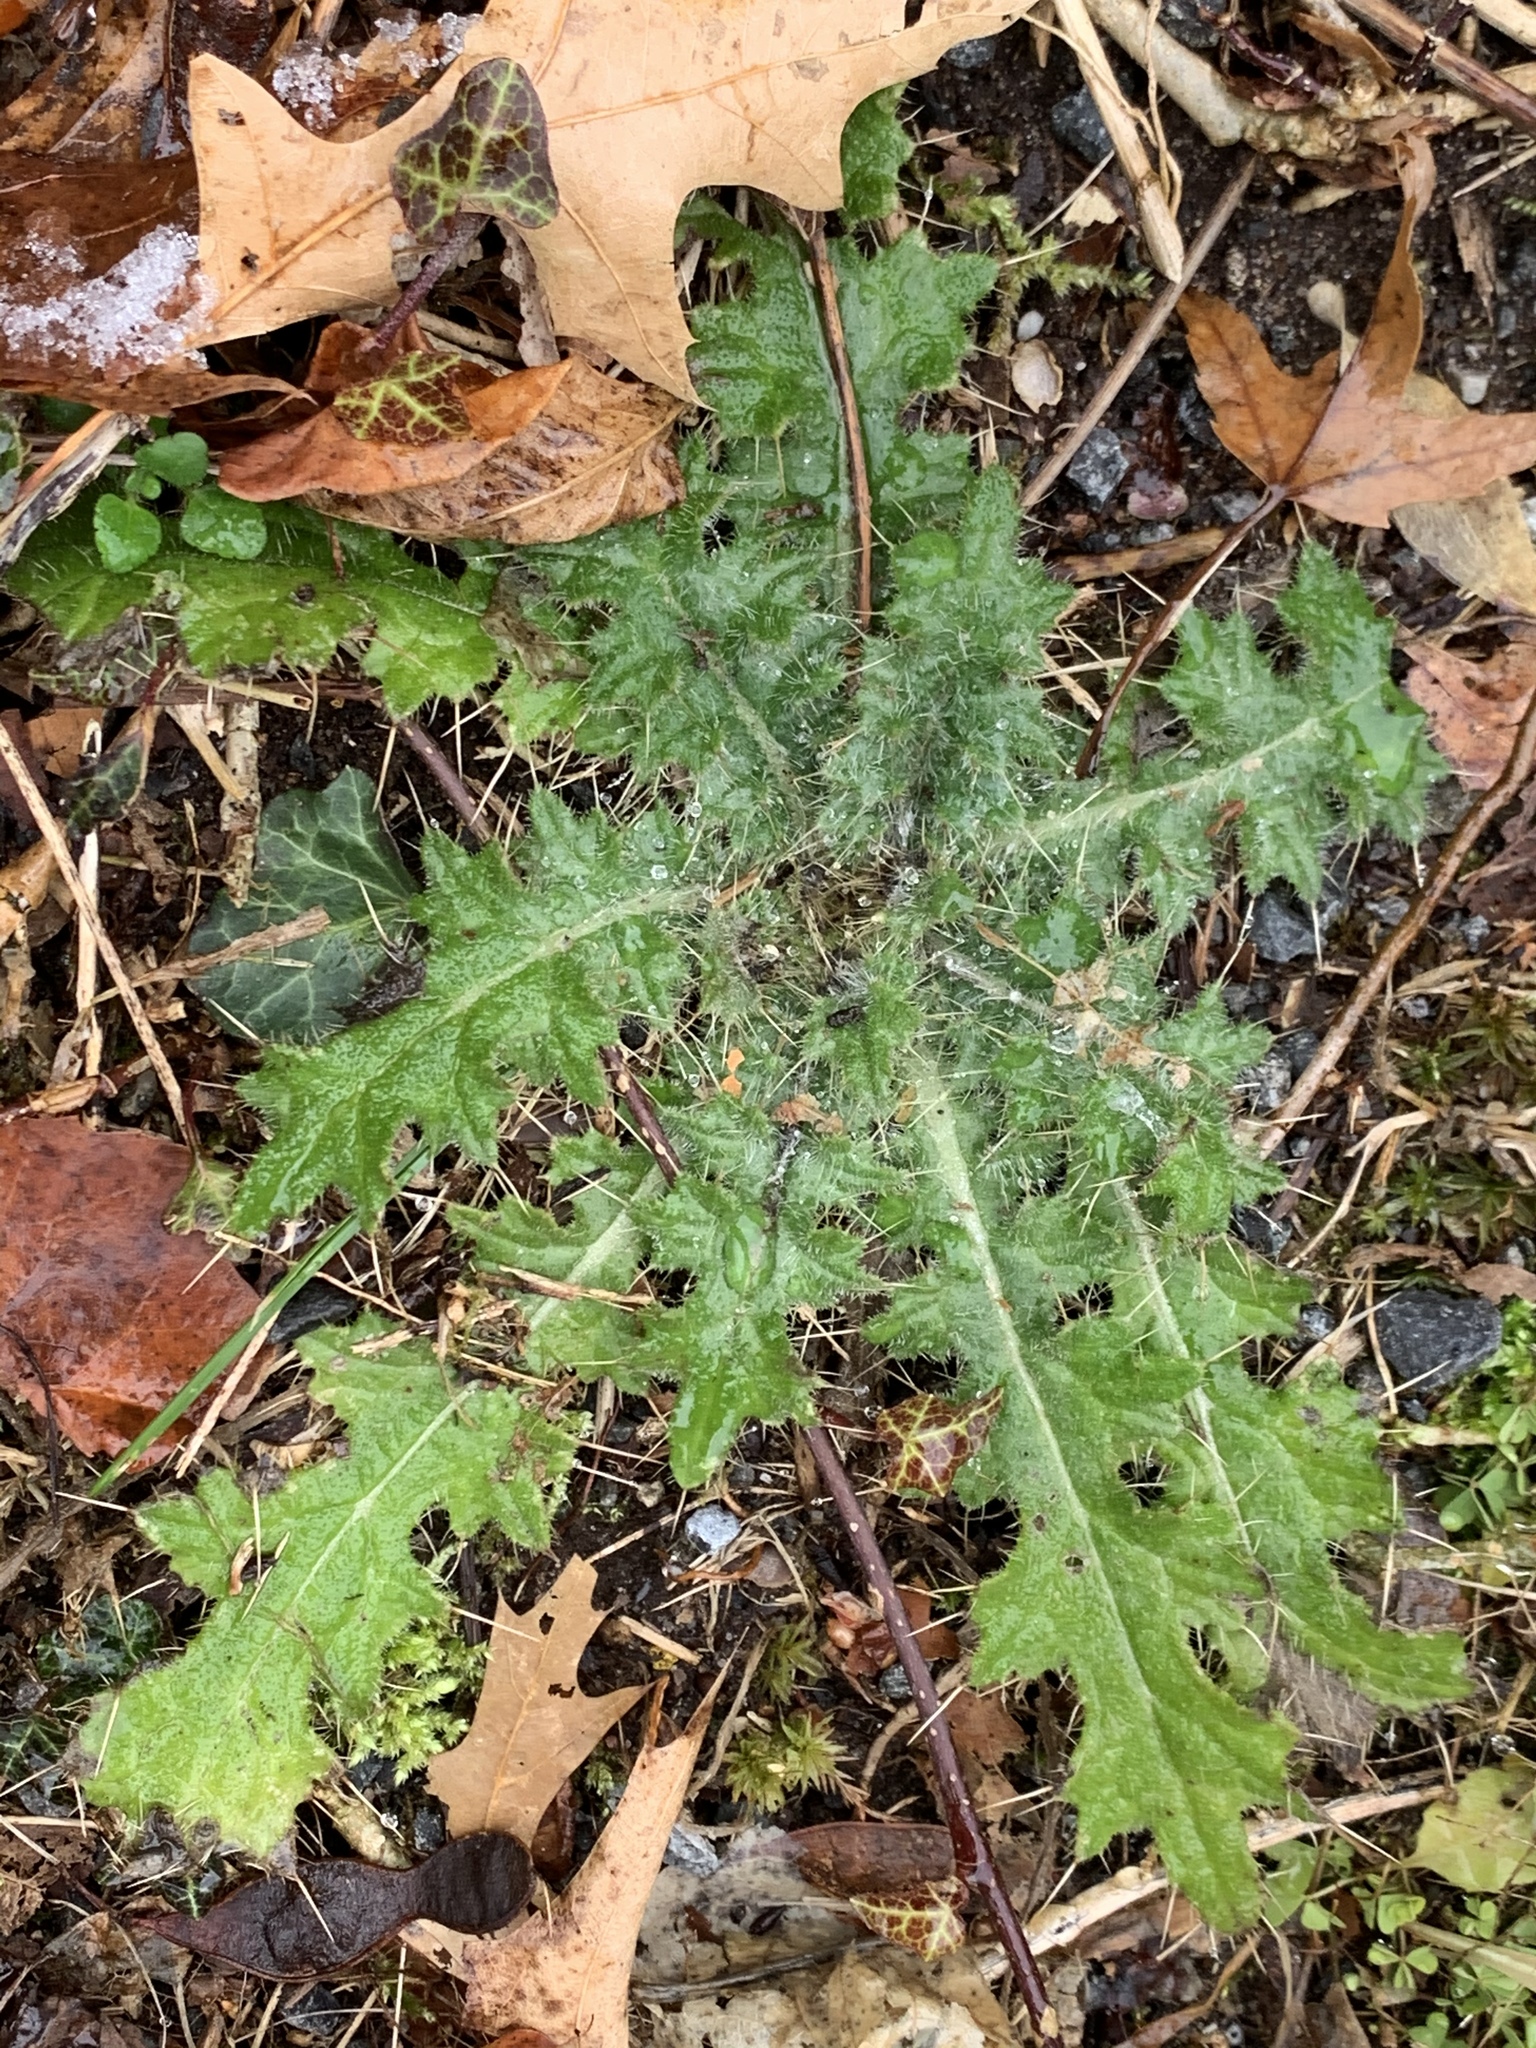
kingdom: Plantae
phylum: Tracheophyta
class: Magnoliopsida
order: Asterales
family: Asteraceae
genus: Cirsium
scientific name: Cirsium vulgare
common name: Bull thistle
